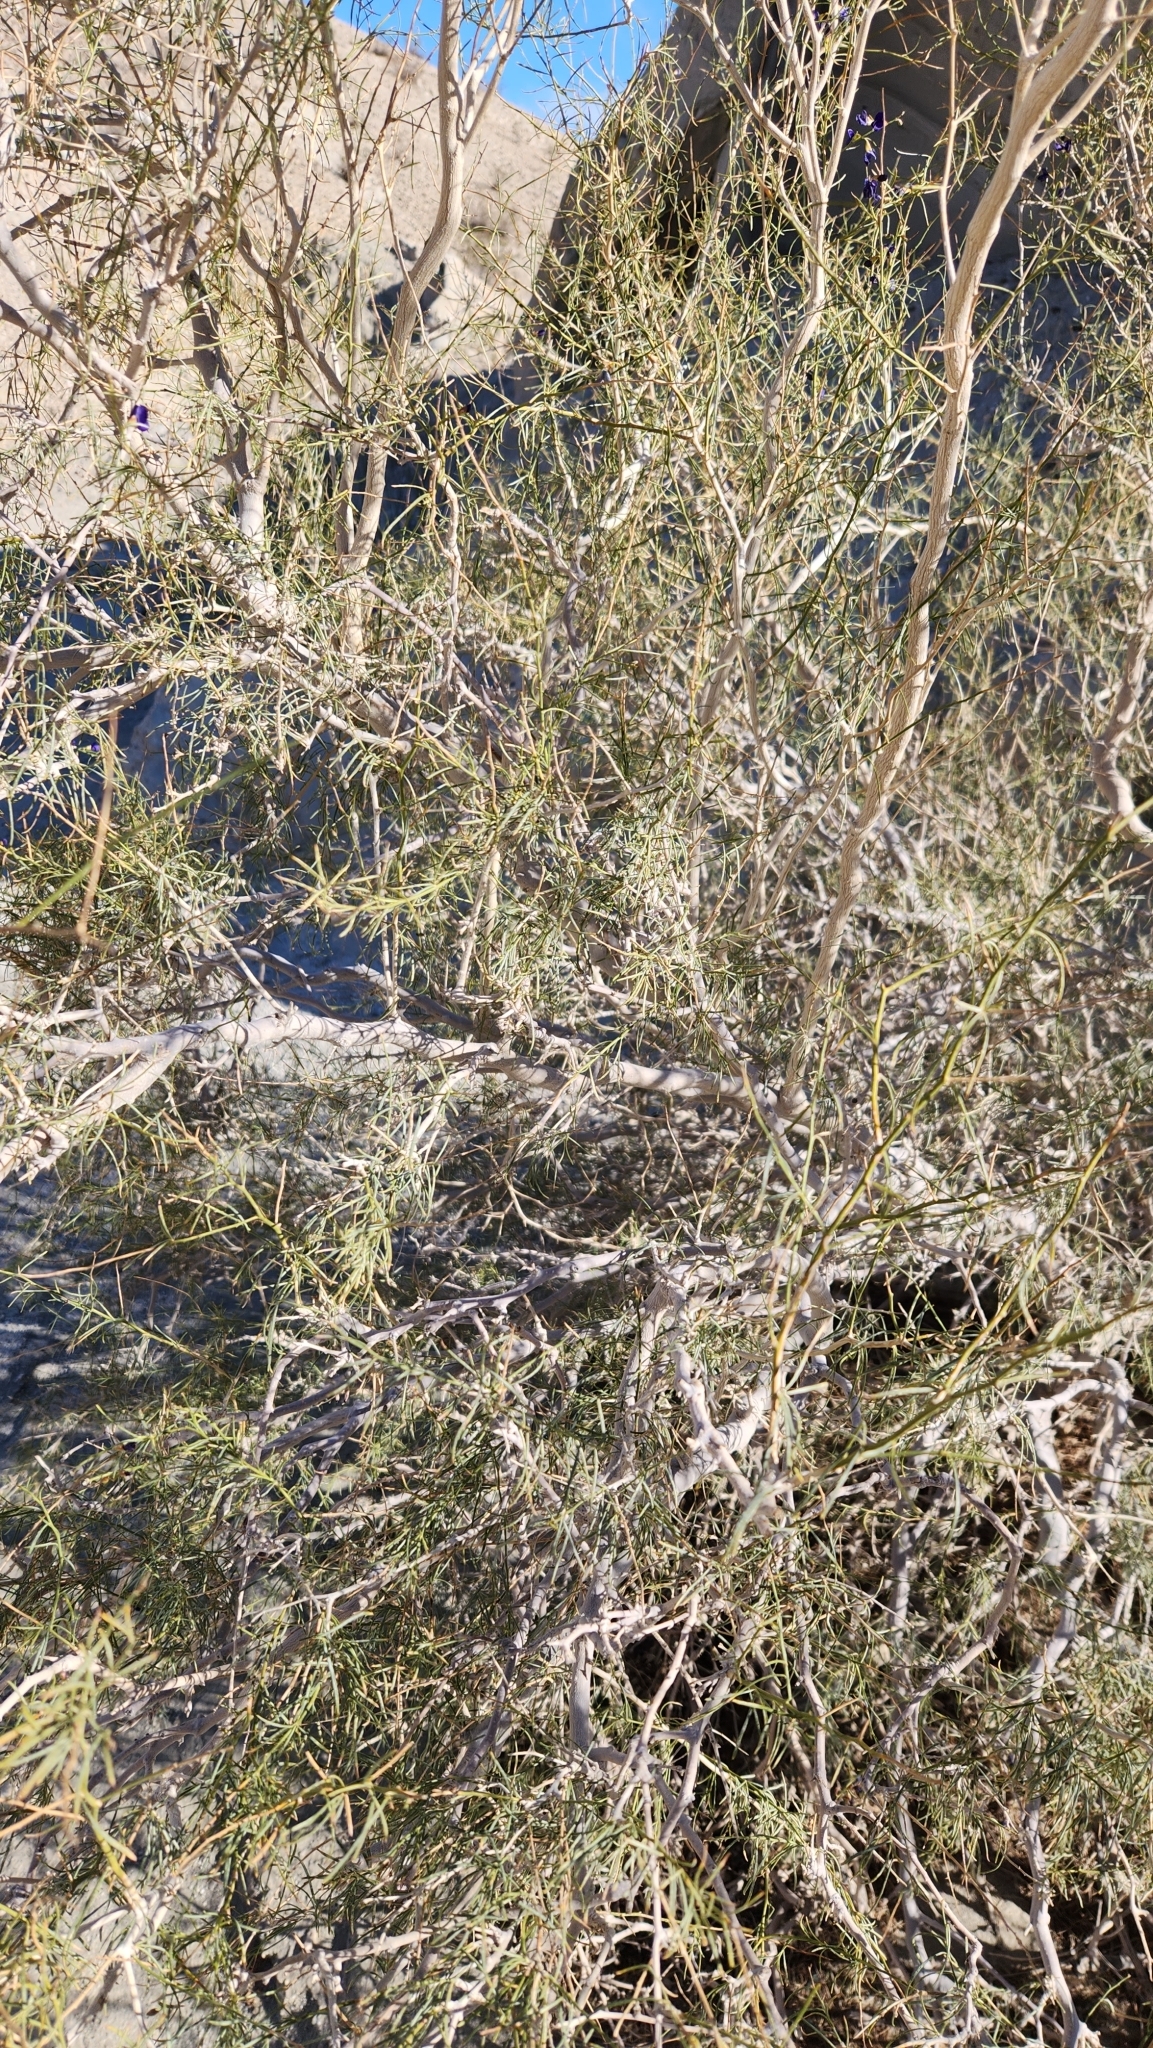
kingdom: Plantae
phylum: Tracheophyta
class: Magnoliopsida
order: Fabales
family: Fabaceae
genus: Psorothamnus
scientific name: Psorothamnus schottii
